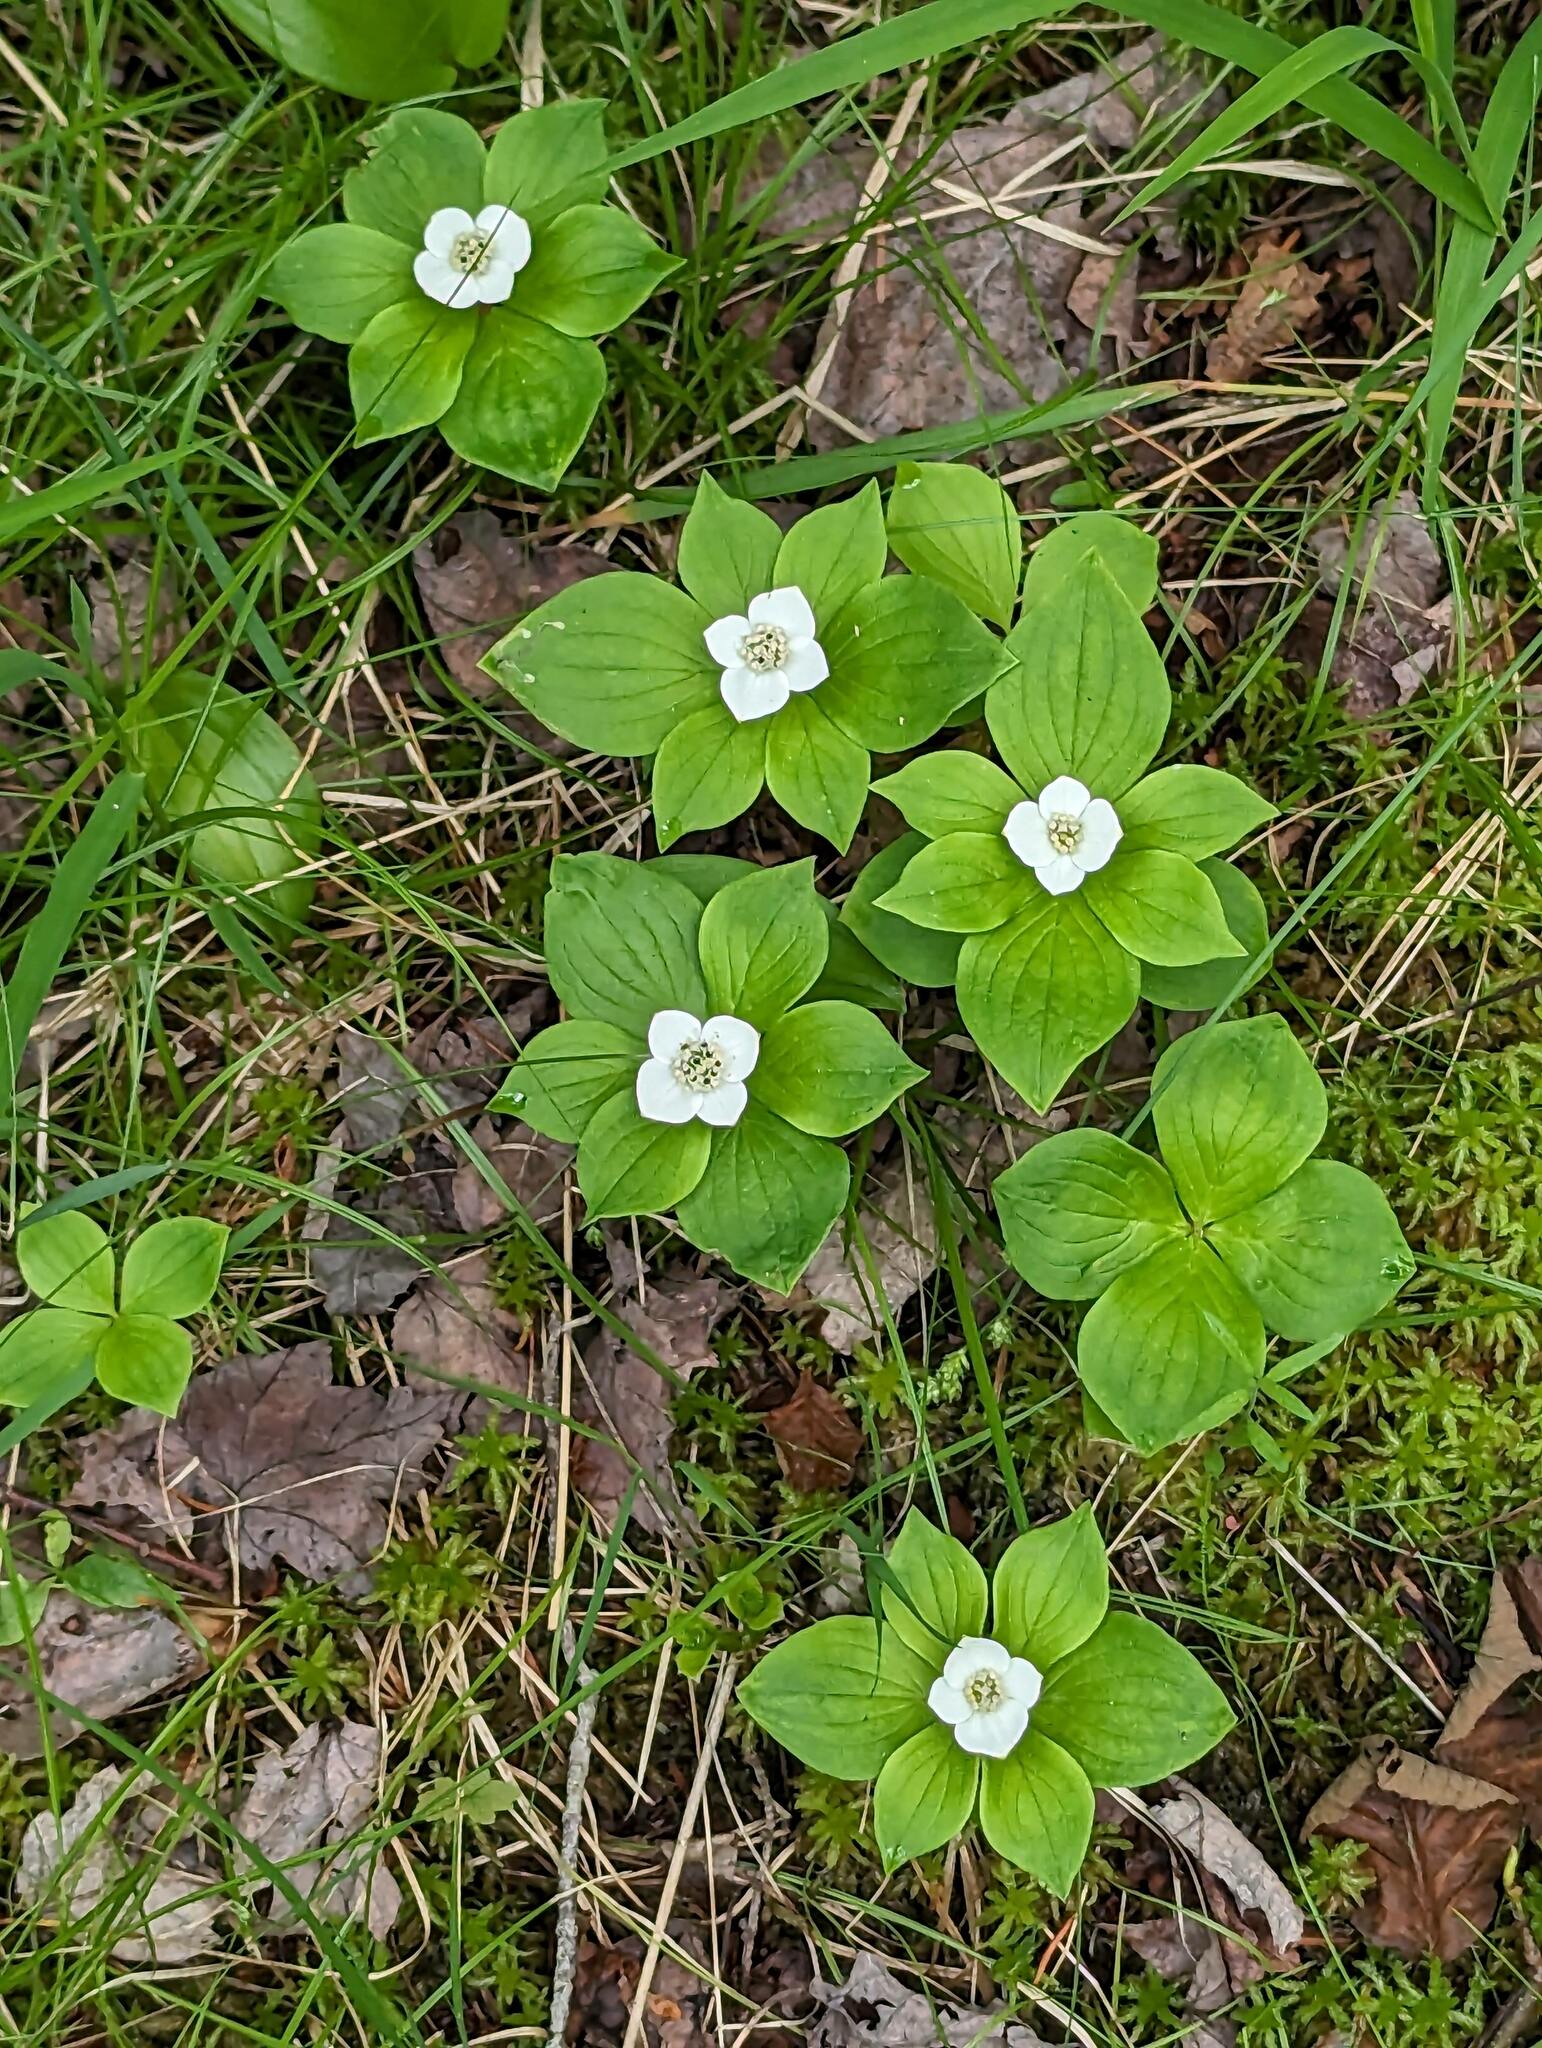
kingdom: Plantae
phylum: Tracheophyta
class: Magnoliopsida
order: Cornales
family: Cornaceae
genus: Cornus
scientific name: Cornus canadensis
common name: Creeping dogwood
